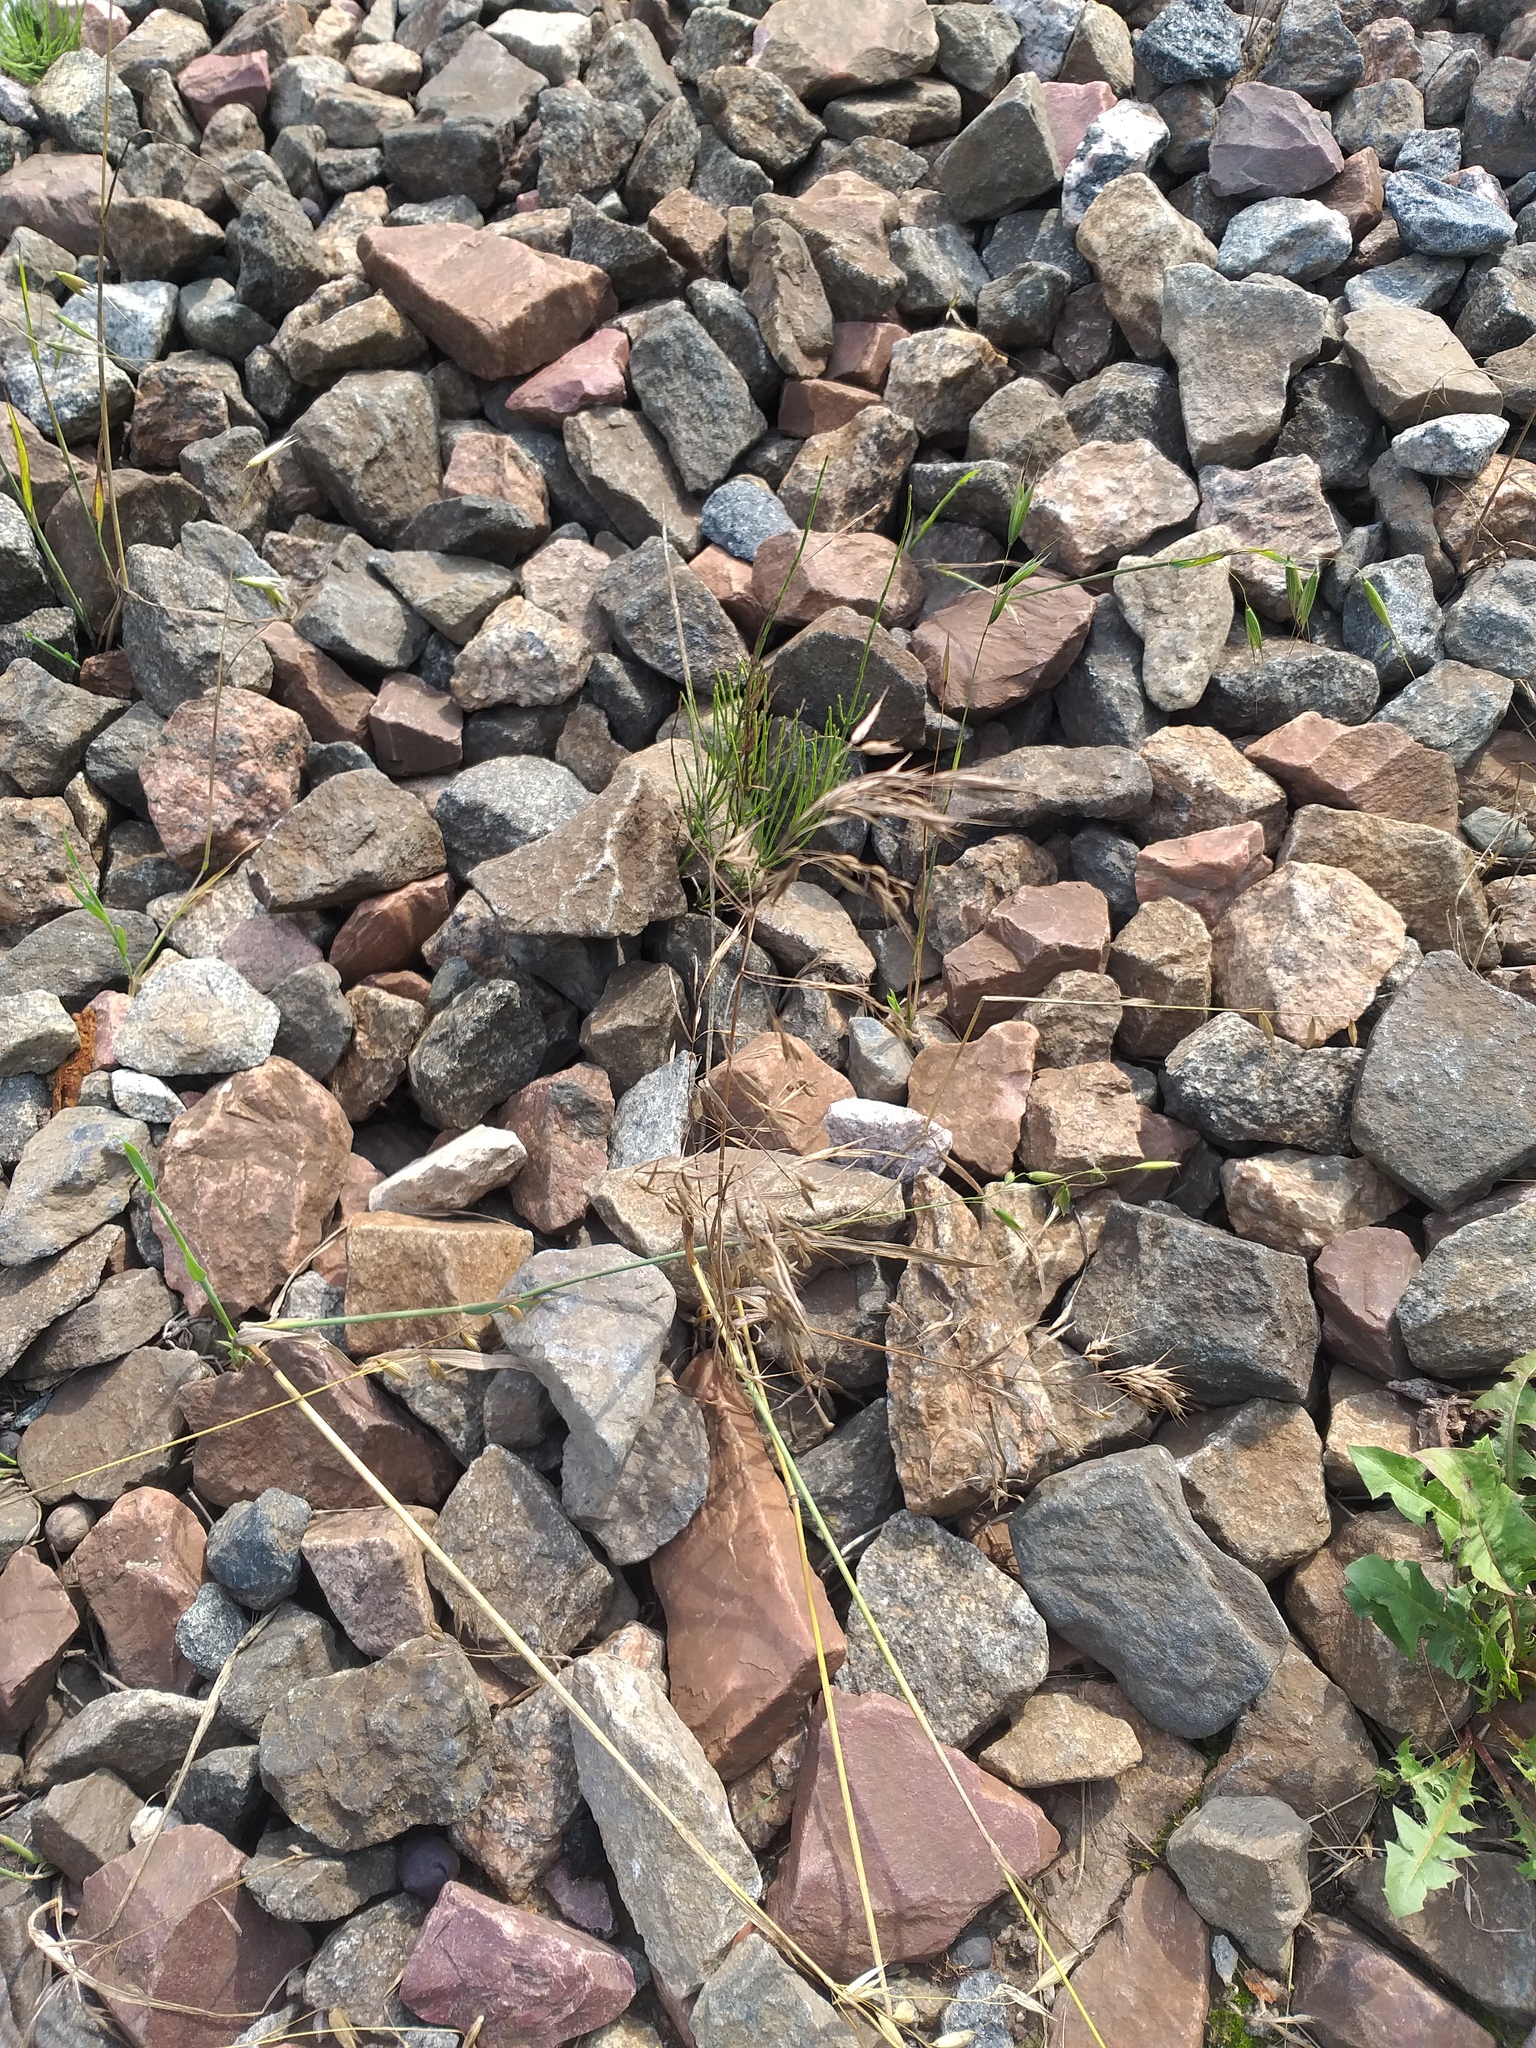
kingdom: Plantae
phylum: Tracheophyta
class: Liliopsida
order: Poales
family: Poaceae
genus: Bromus
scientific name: Bromus tectorum
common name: Cheatgrass
